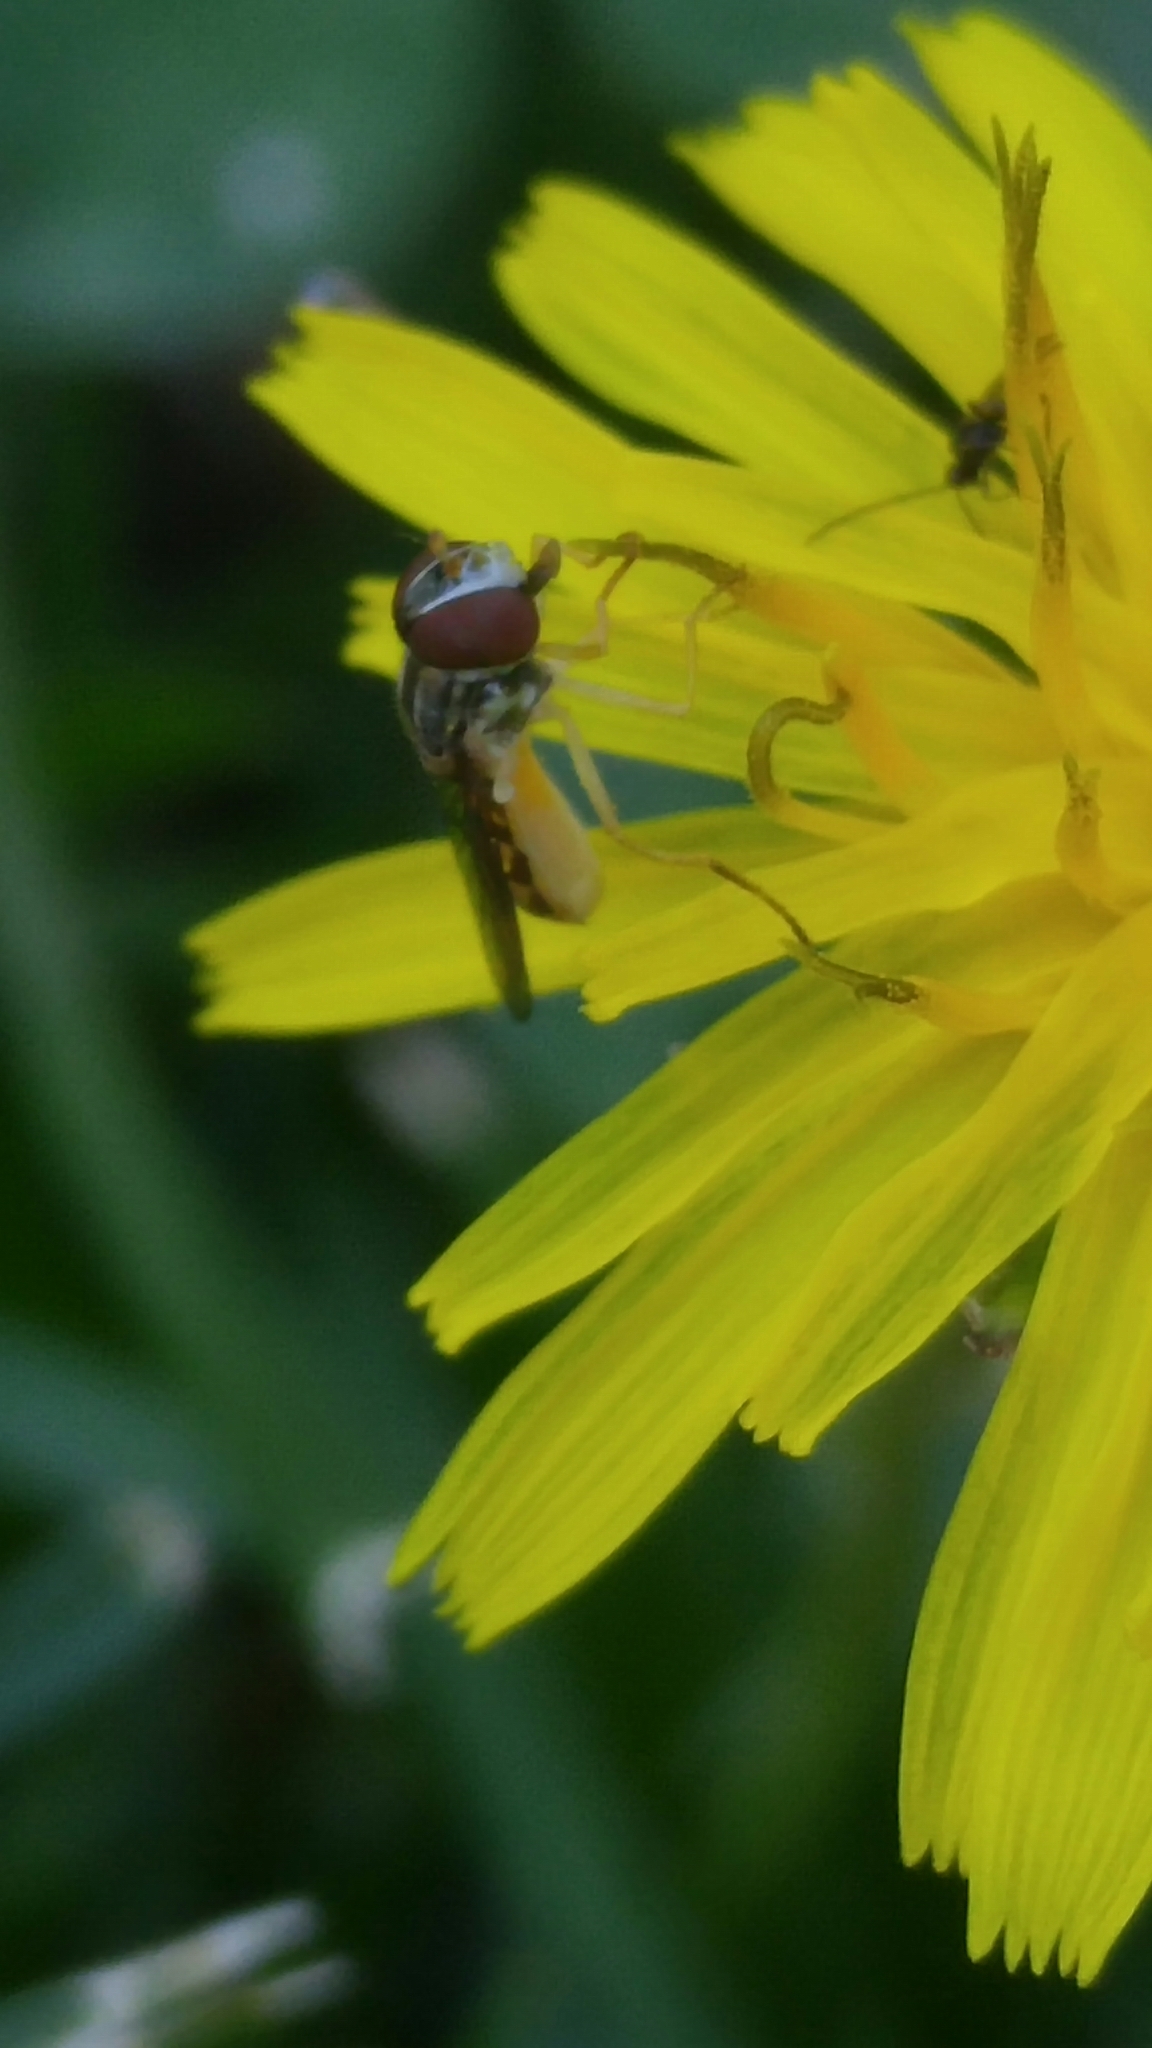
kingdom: Animalia
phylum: Arthropoda
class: Insecta
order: Diptera
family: Syrphidae
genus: Toxomerus
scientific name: Toxomerus marginatus
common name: Syrphid fly
